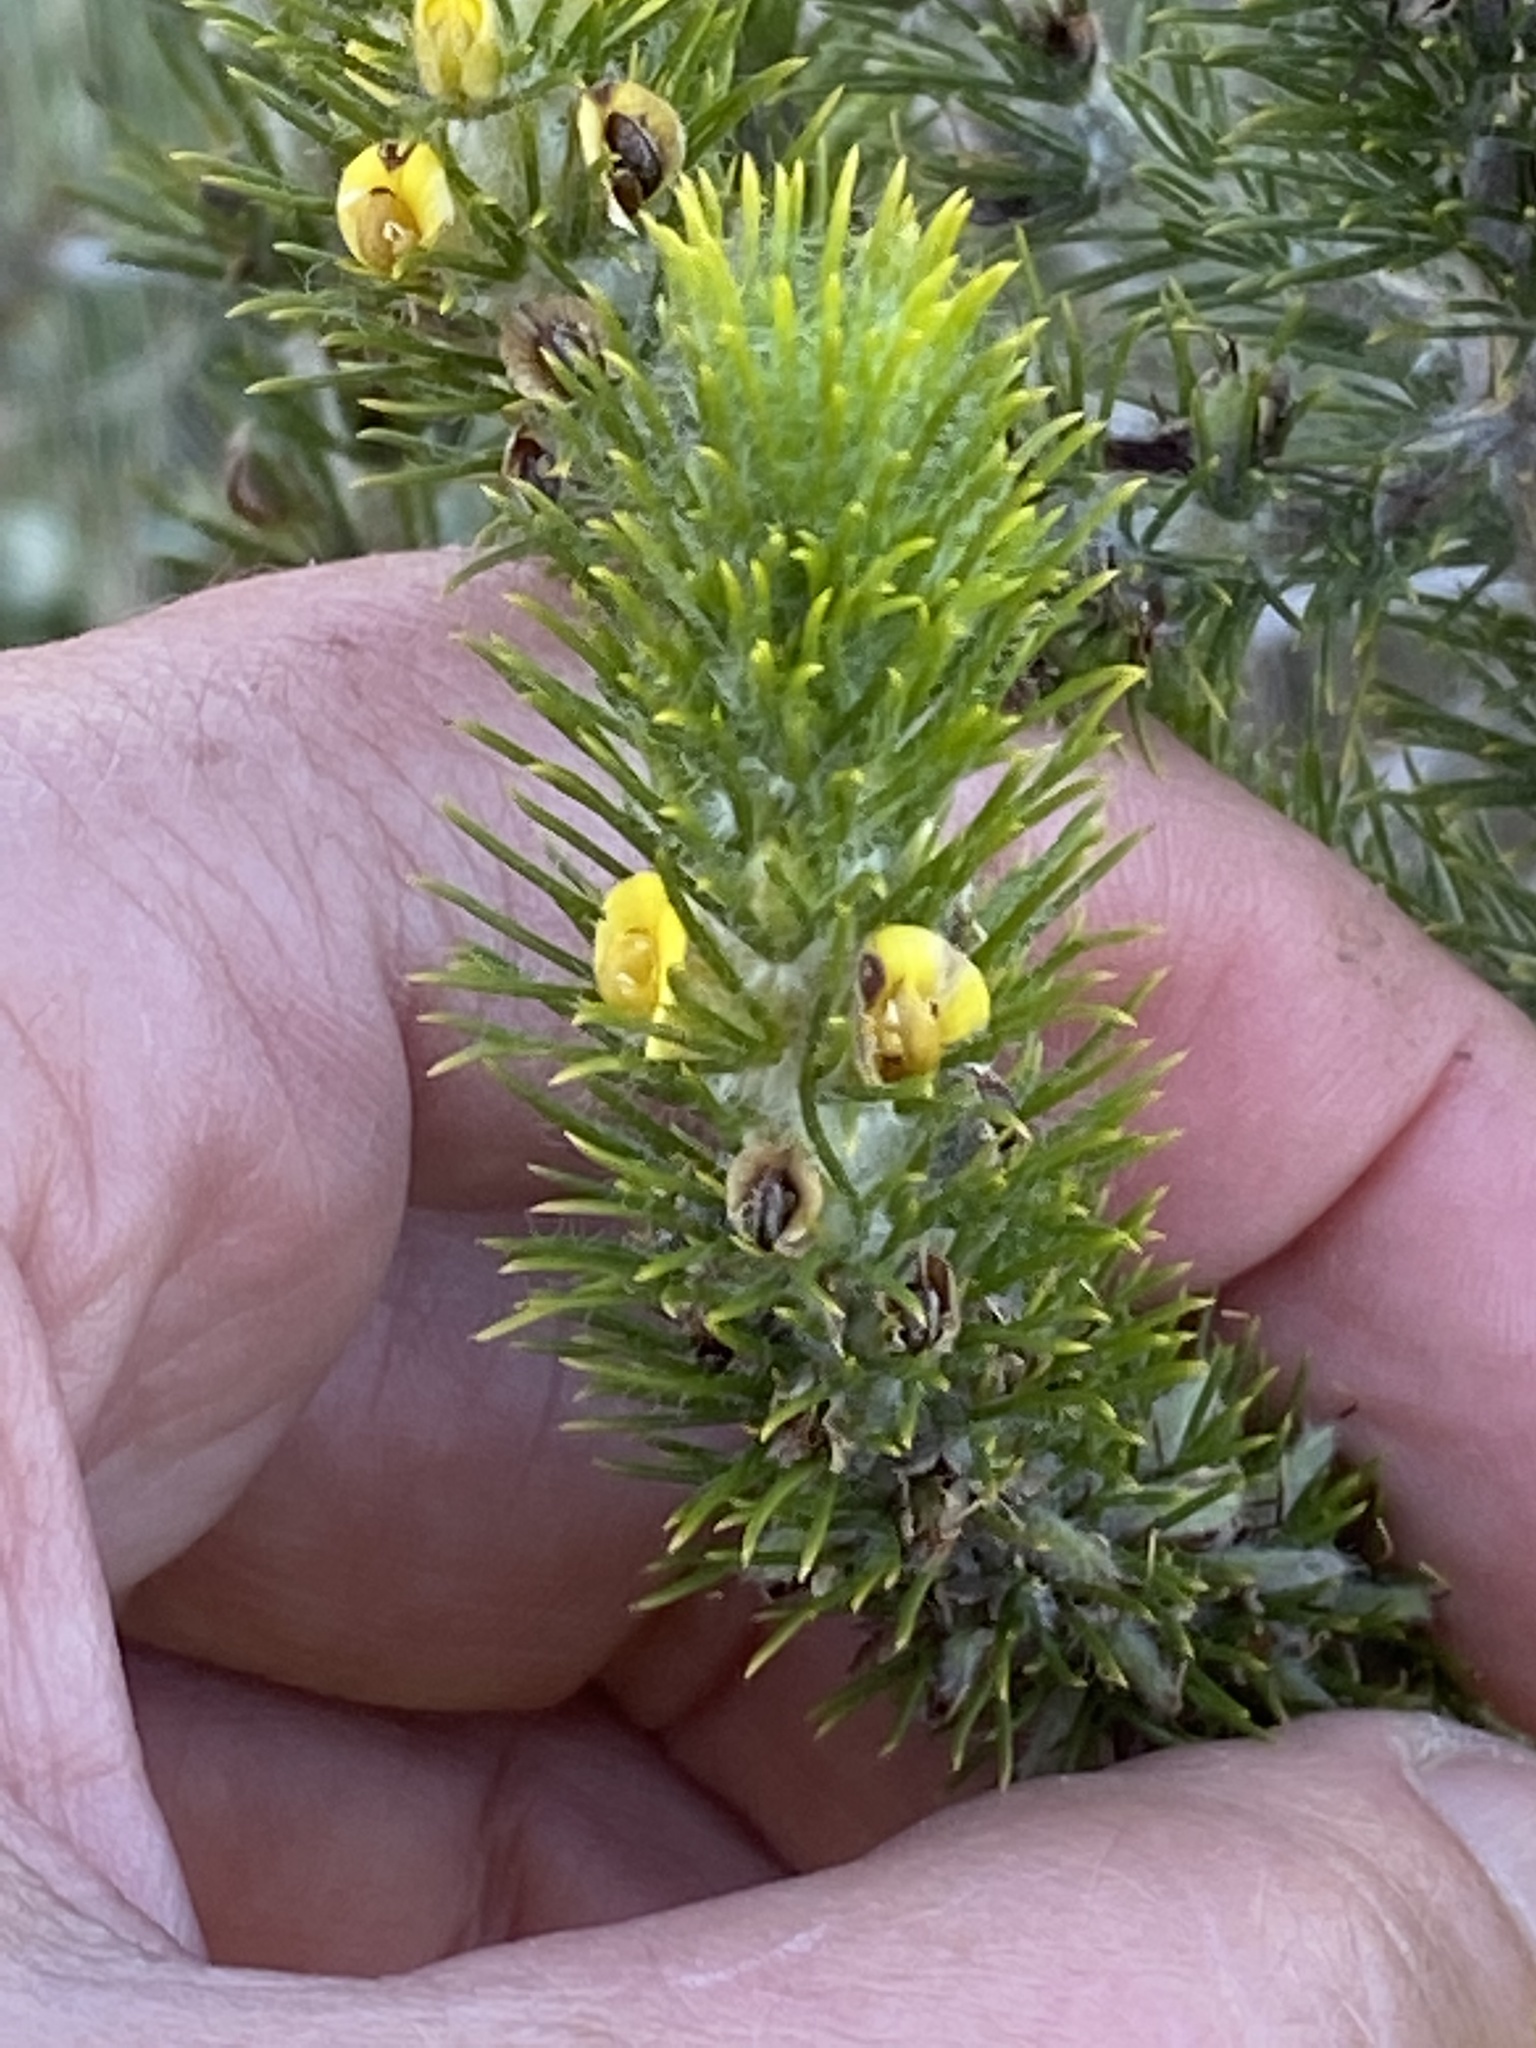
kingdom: Plantae
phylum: Tracheophyta
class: Magnoliopsida
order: Fabales
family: Fabaceae
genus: Aspalathus
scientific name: Aspalathus alopecurus
